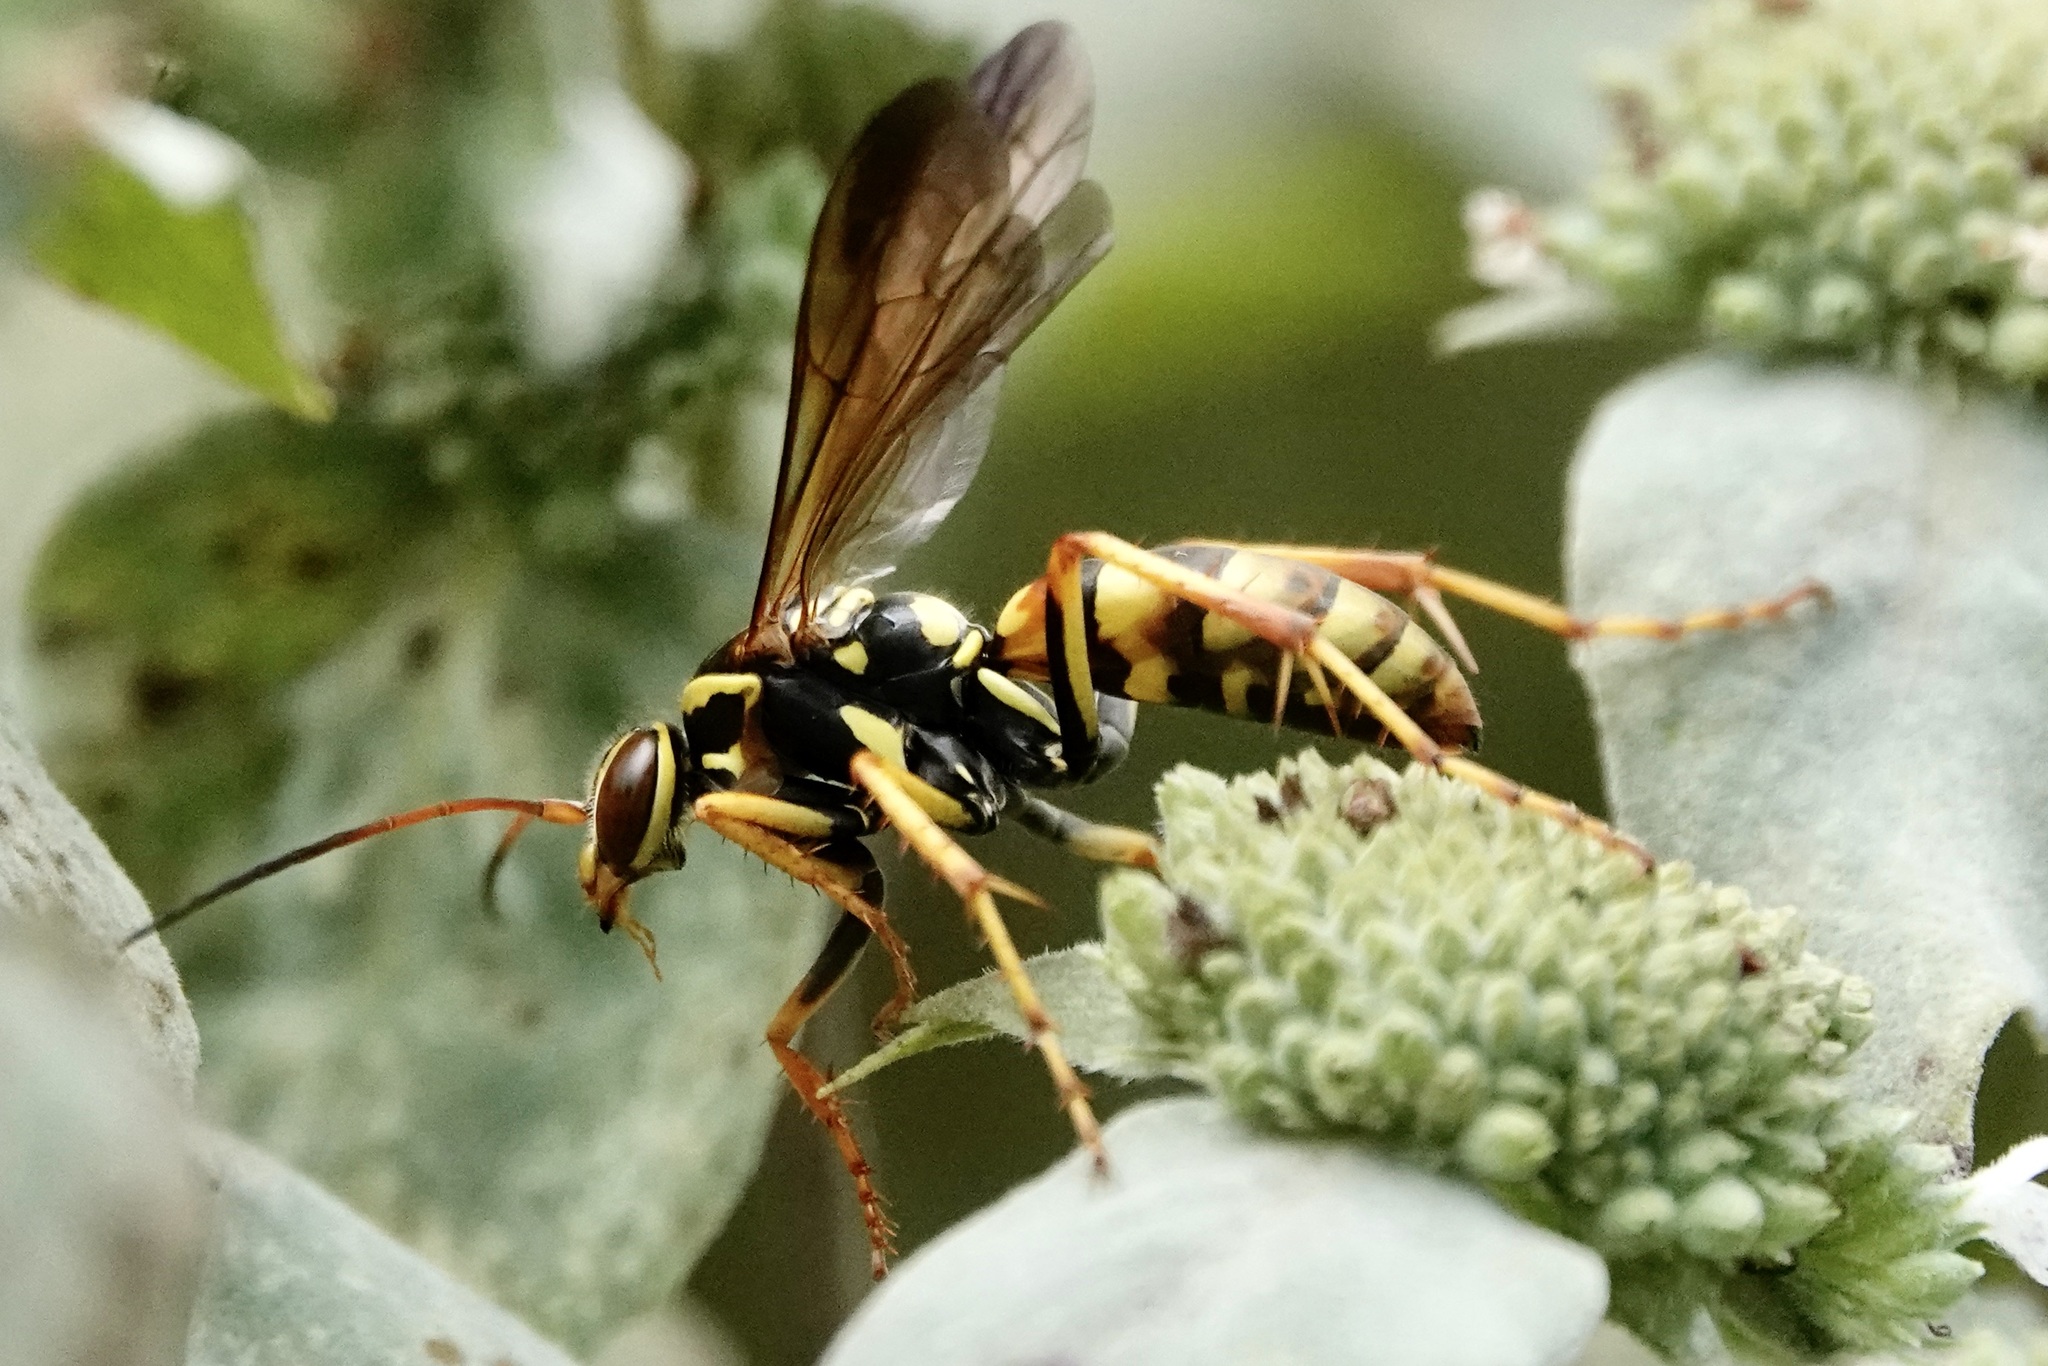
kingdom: Animalia
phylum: Arthropoda
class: Insecta
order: Hymenoptera
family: Pompilidae
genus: Poecilopompilus
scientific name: Poecilopompilus interruptus
